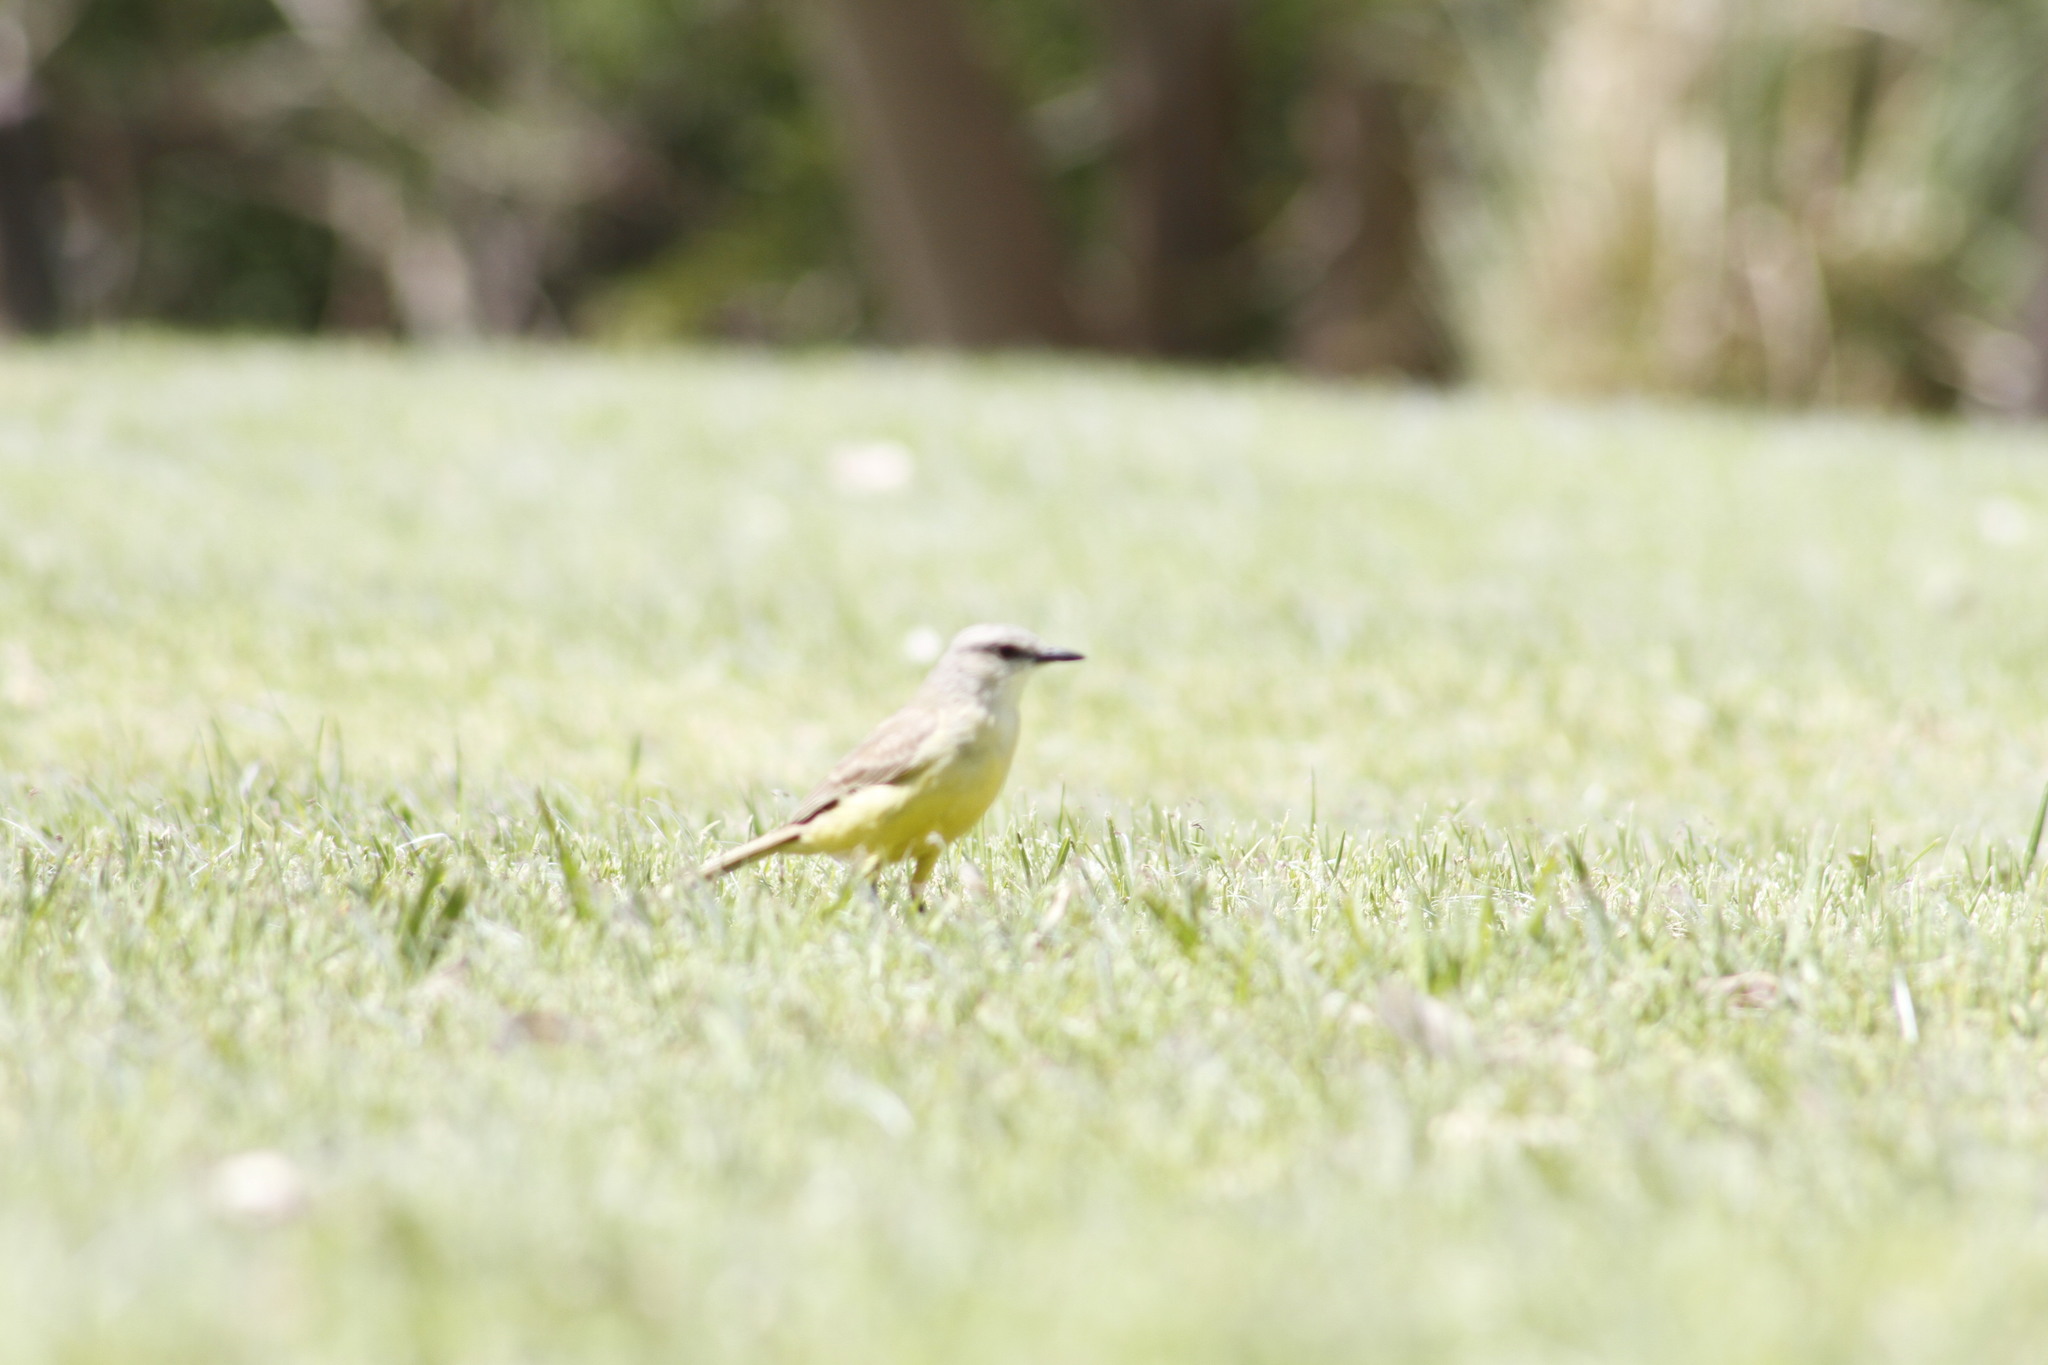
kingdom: Animalia
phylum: Chordata
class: Aves
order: Passeriformes
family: Tyrannidae
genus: Machetornis
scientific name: Machetornis rixosa
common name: Cattle tyrant
